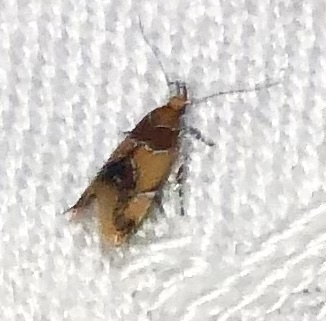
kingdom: Animalia
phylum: Arthropoda
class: Insecta
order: Lepidoptera
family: Oecophoridae
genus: Callima
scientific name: Callima argenticinctella
